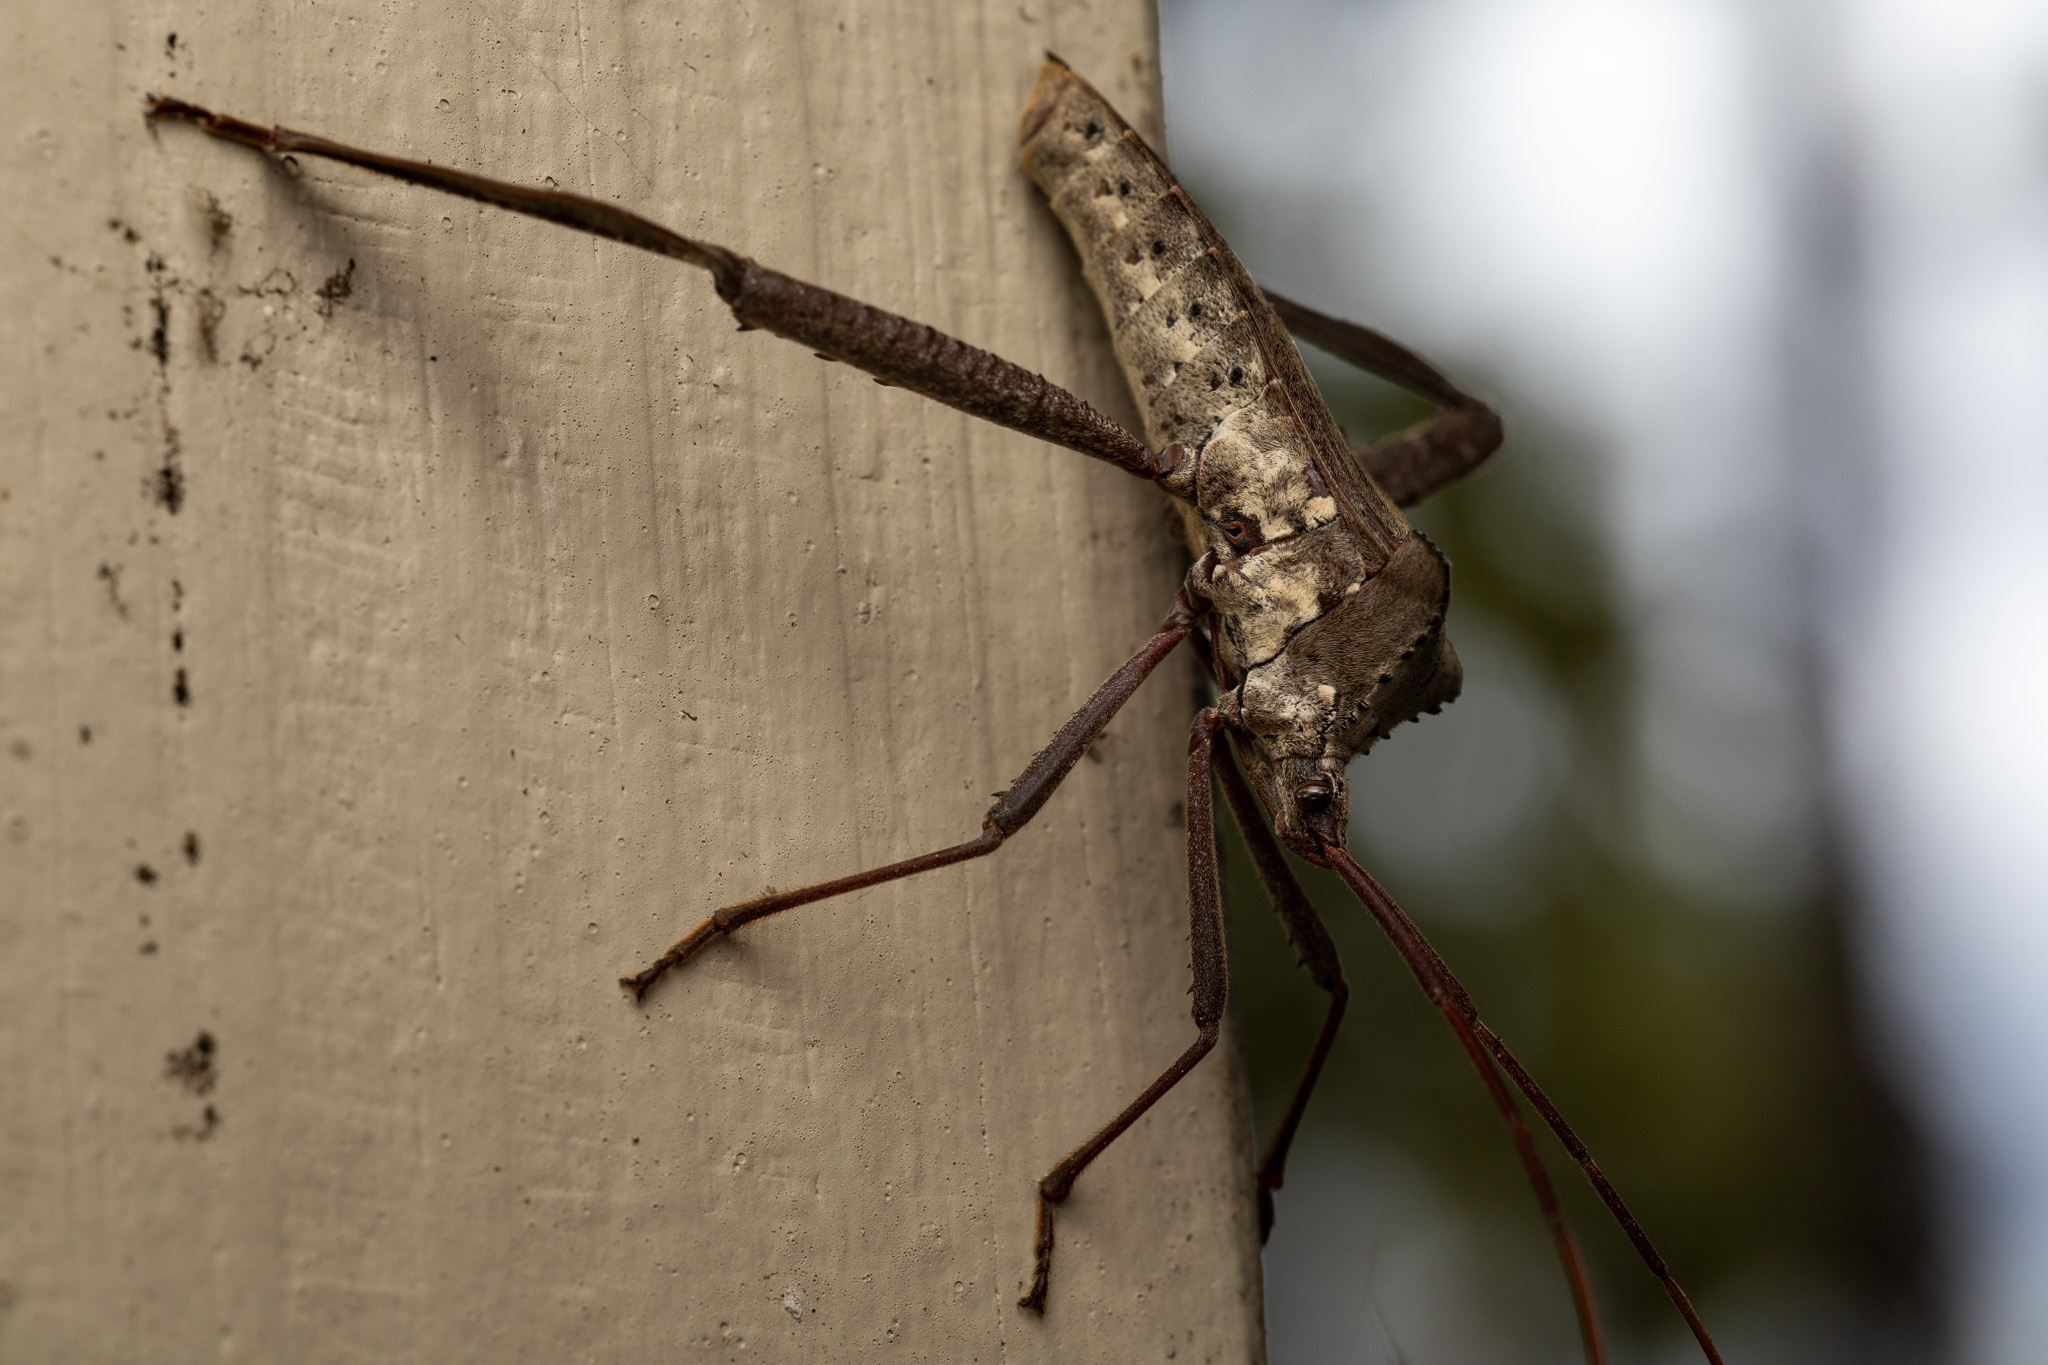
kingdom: Animalia
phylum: Arthropoda
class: Insecta
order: Hemiptera
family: Coreidae
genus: Acanthocephala
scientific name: Acanthocephala declivis
